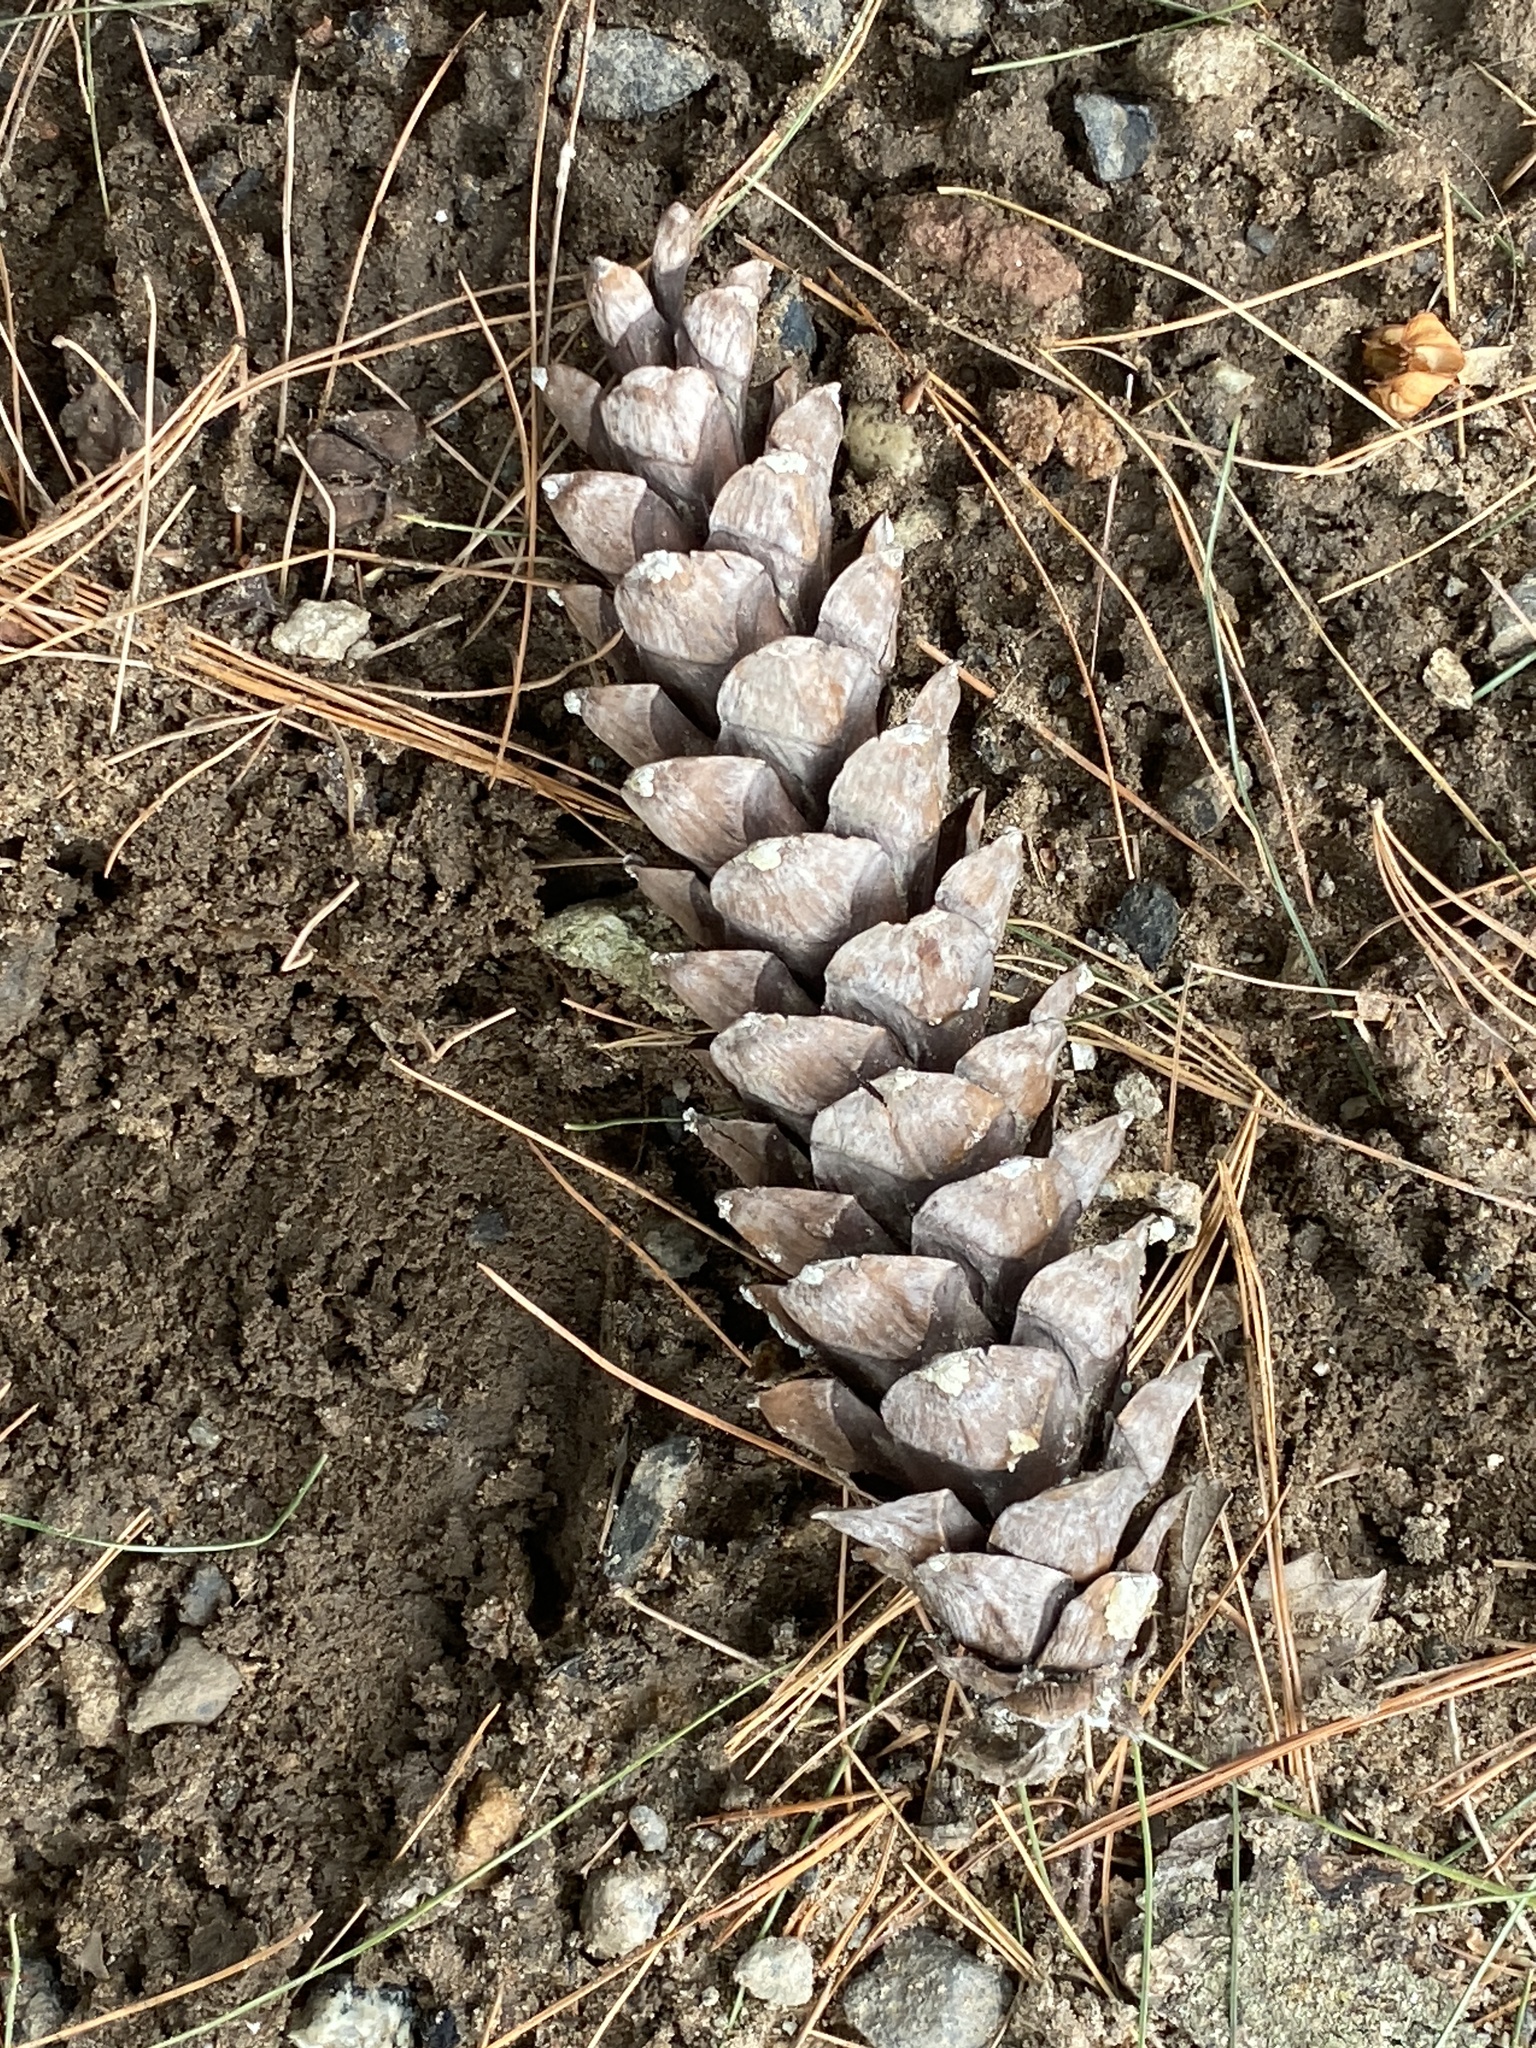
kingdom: Plantae
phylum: Tracheophyta
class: Pinopsida
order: Pinales
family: Pinaceae
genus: Pinus
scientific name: Pinus strobus
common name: Weymouth pine
